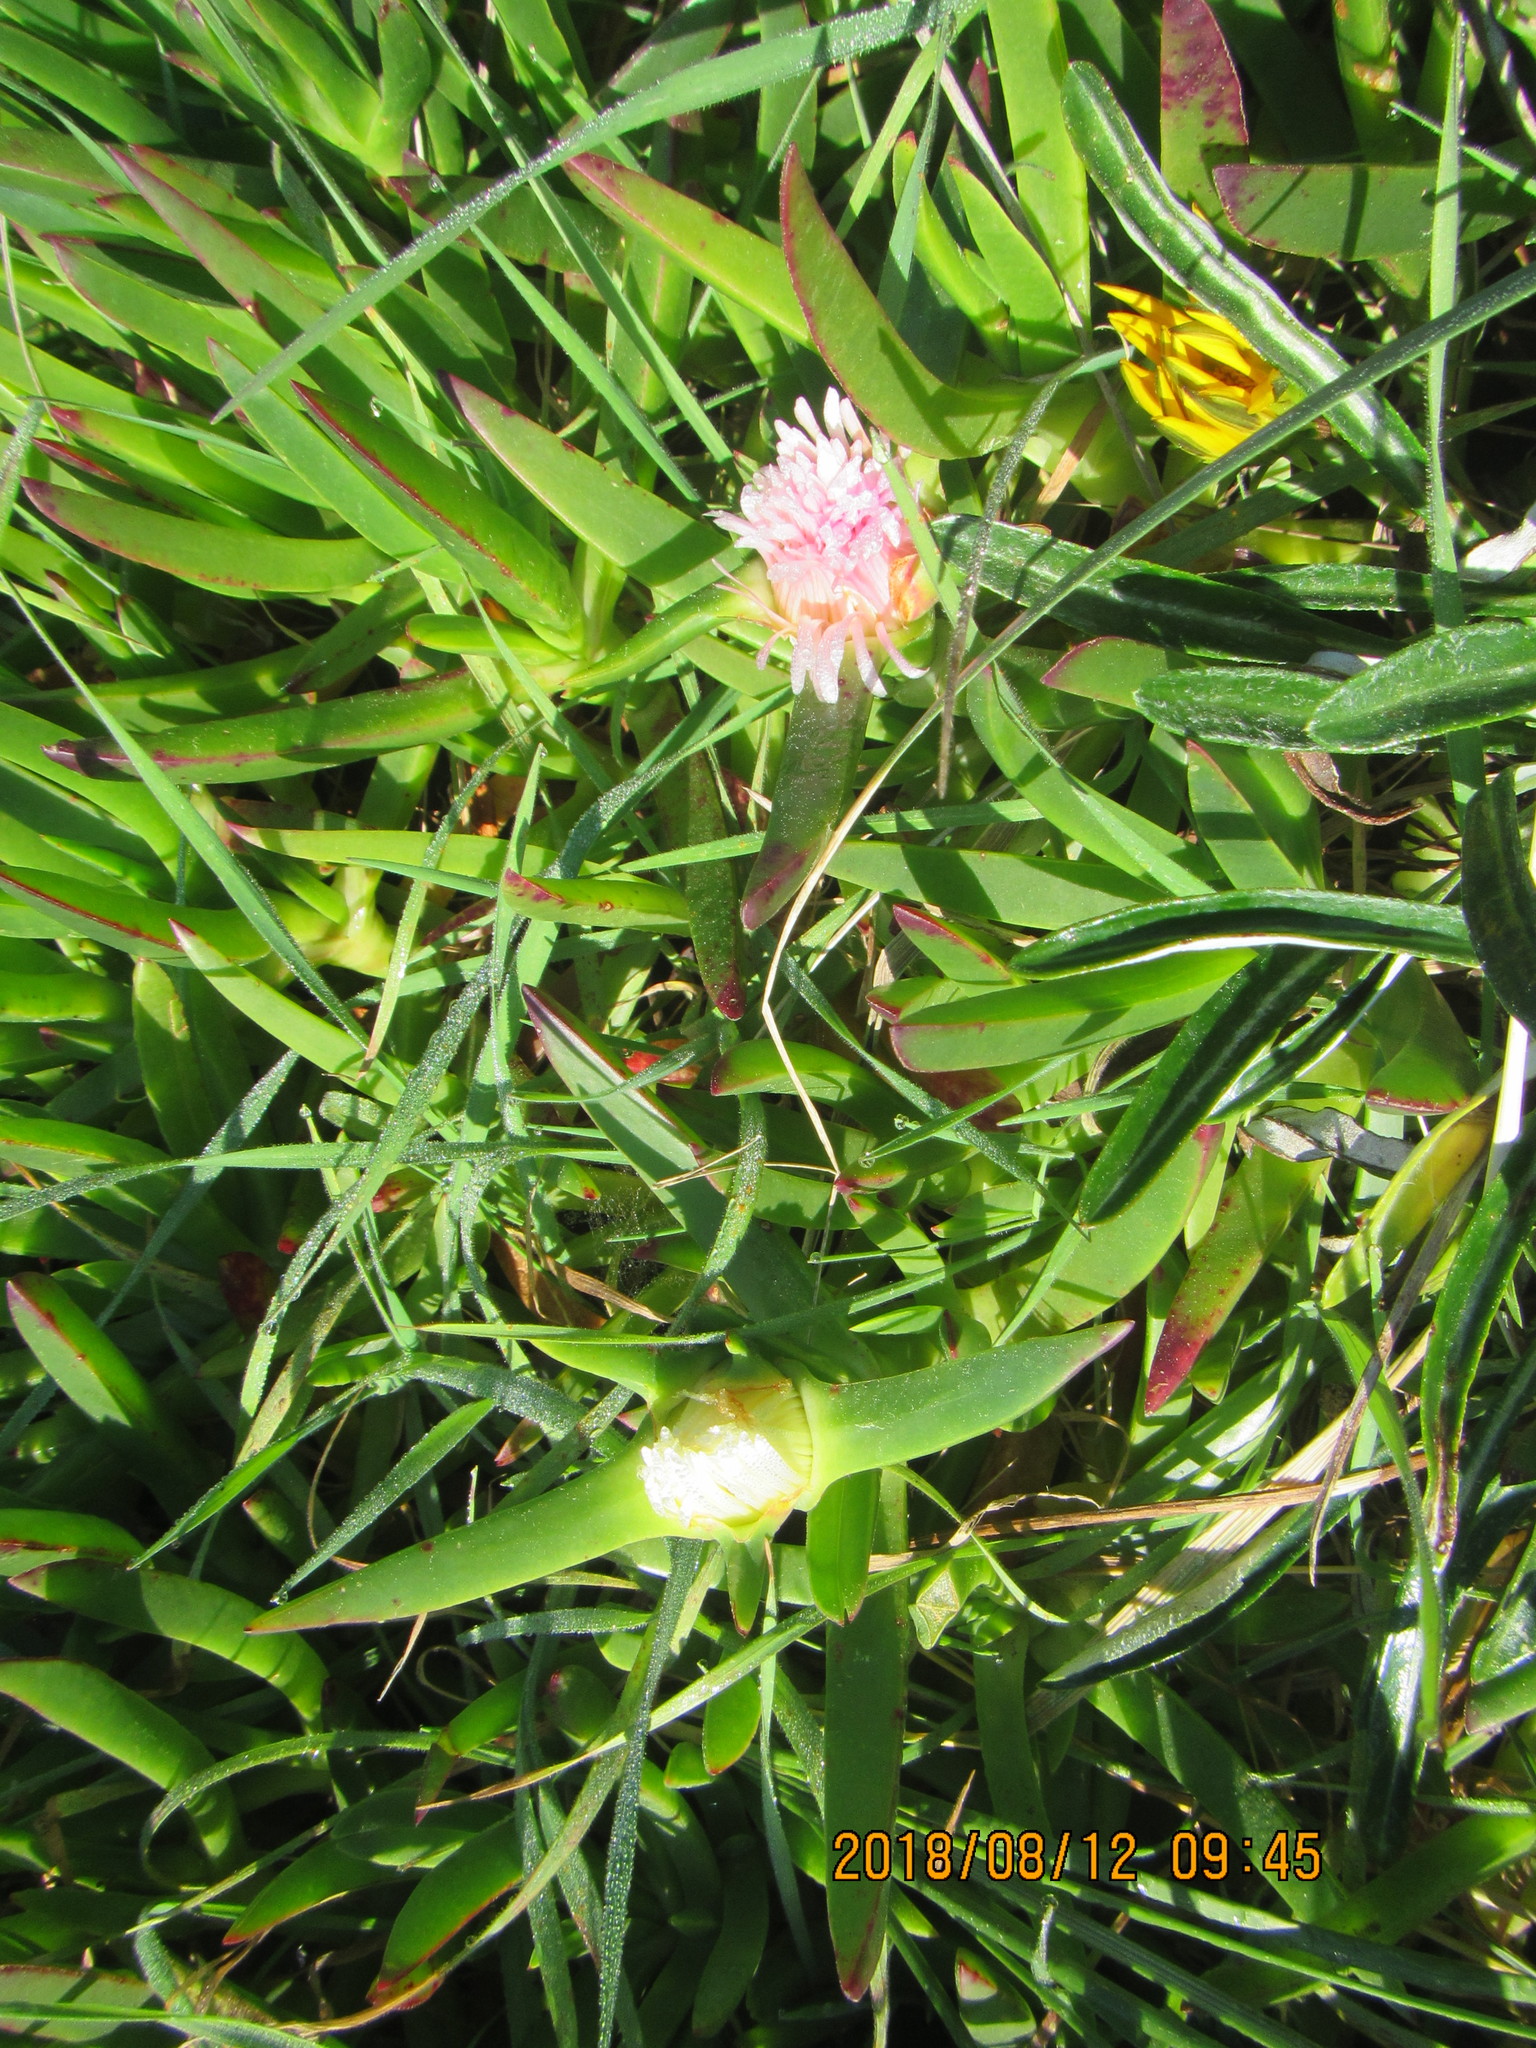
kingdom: Plantae
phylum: Tracheophyta
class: Magnoliopsida
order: Caryophyllales
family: Aizoaceae
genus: Carpobrotus
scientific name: Carpobrotus edulis
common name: Hottentot-fig
